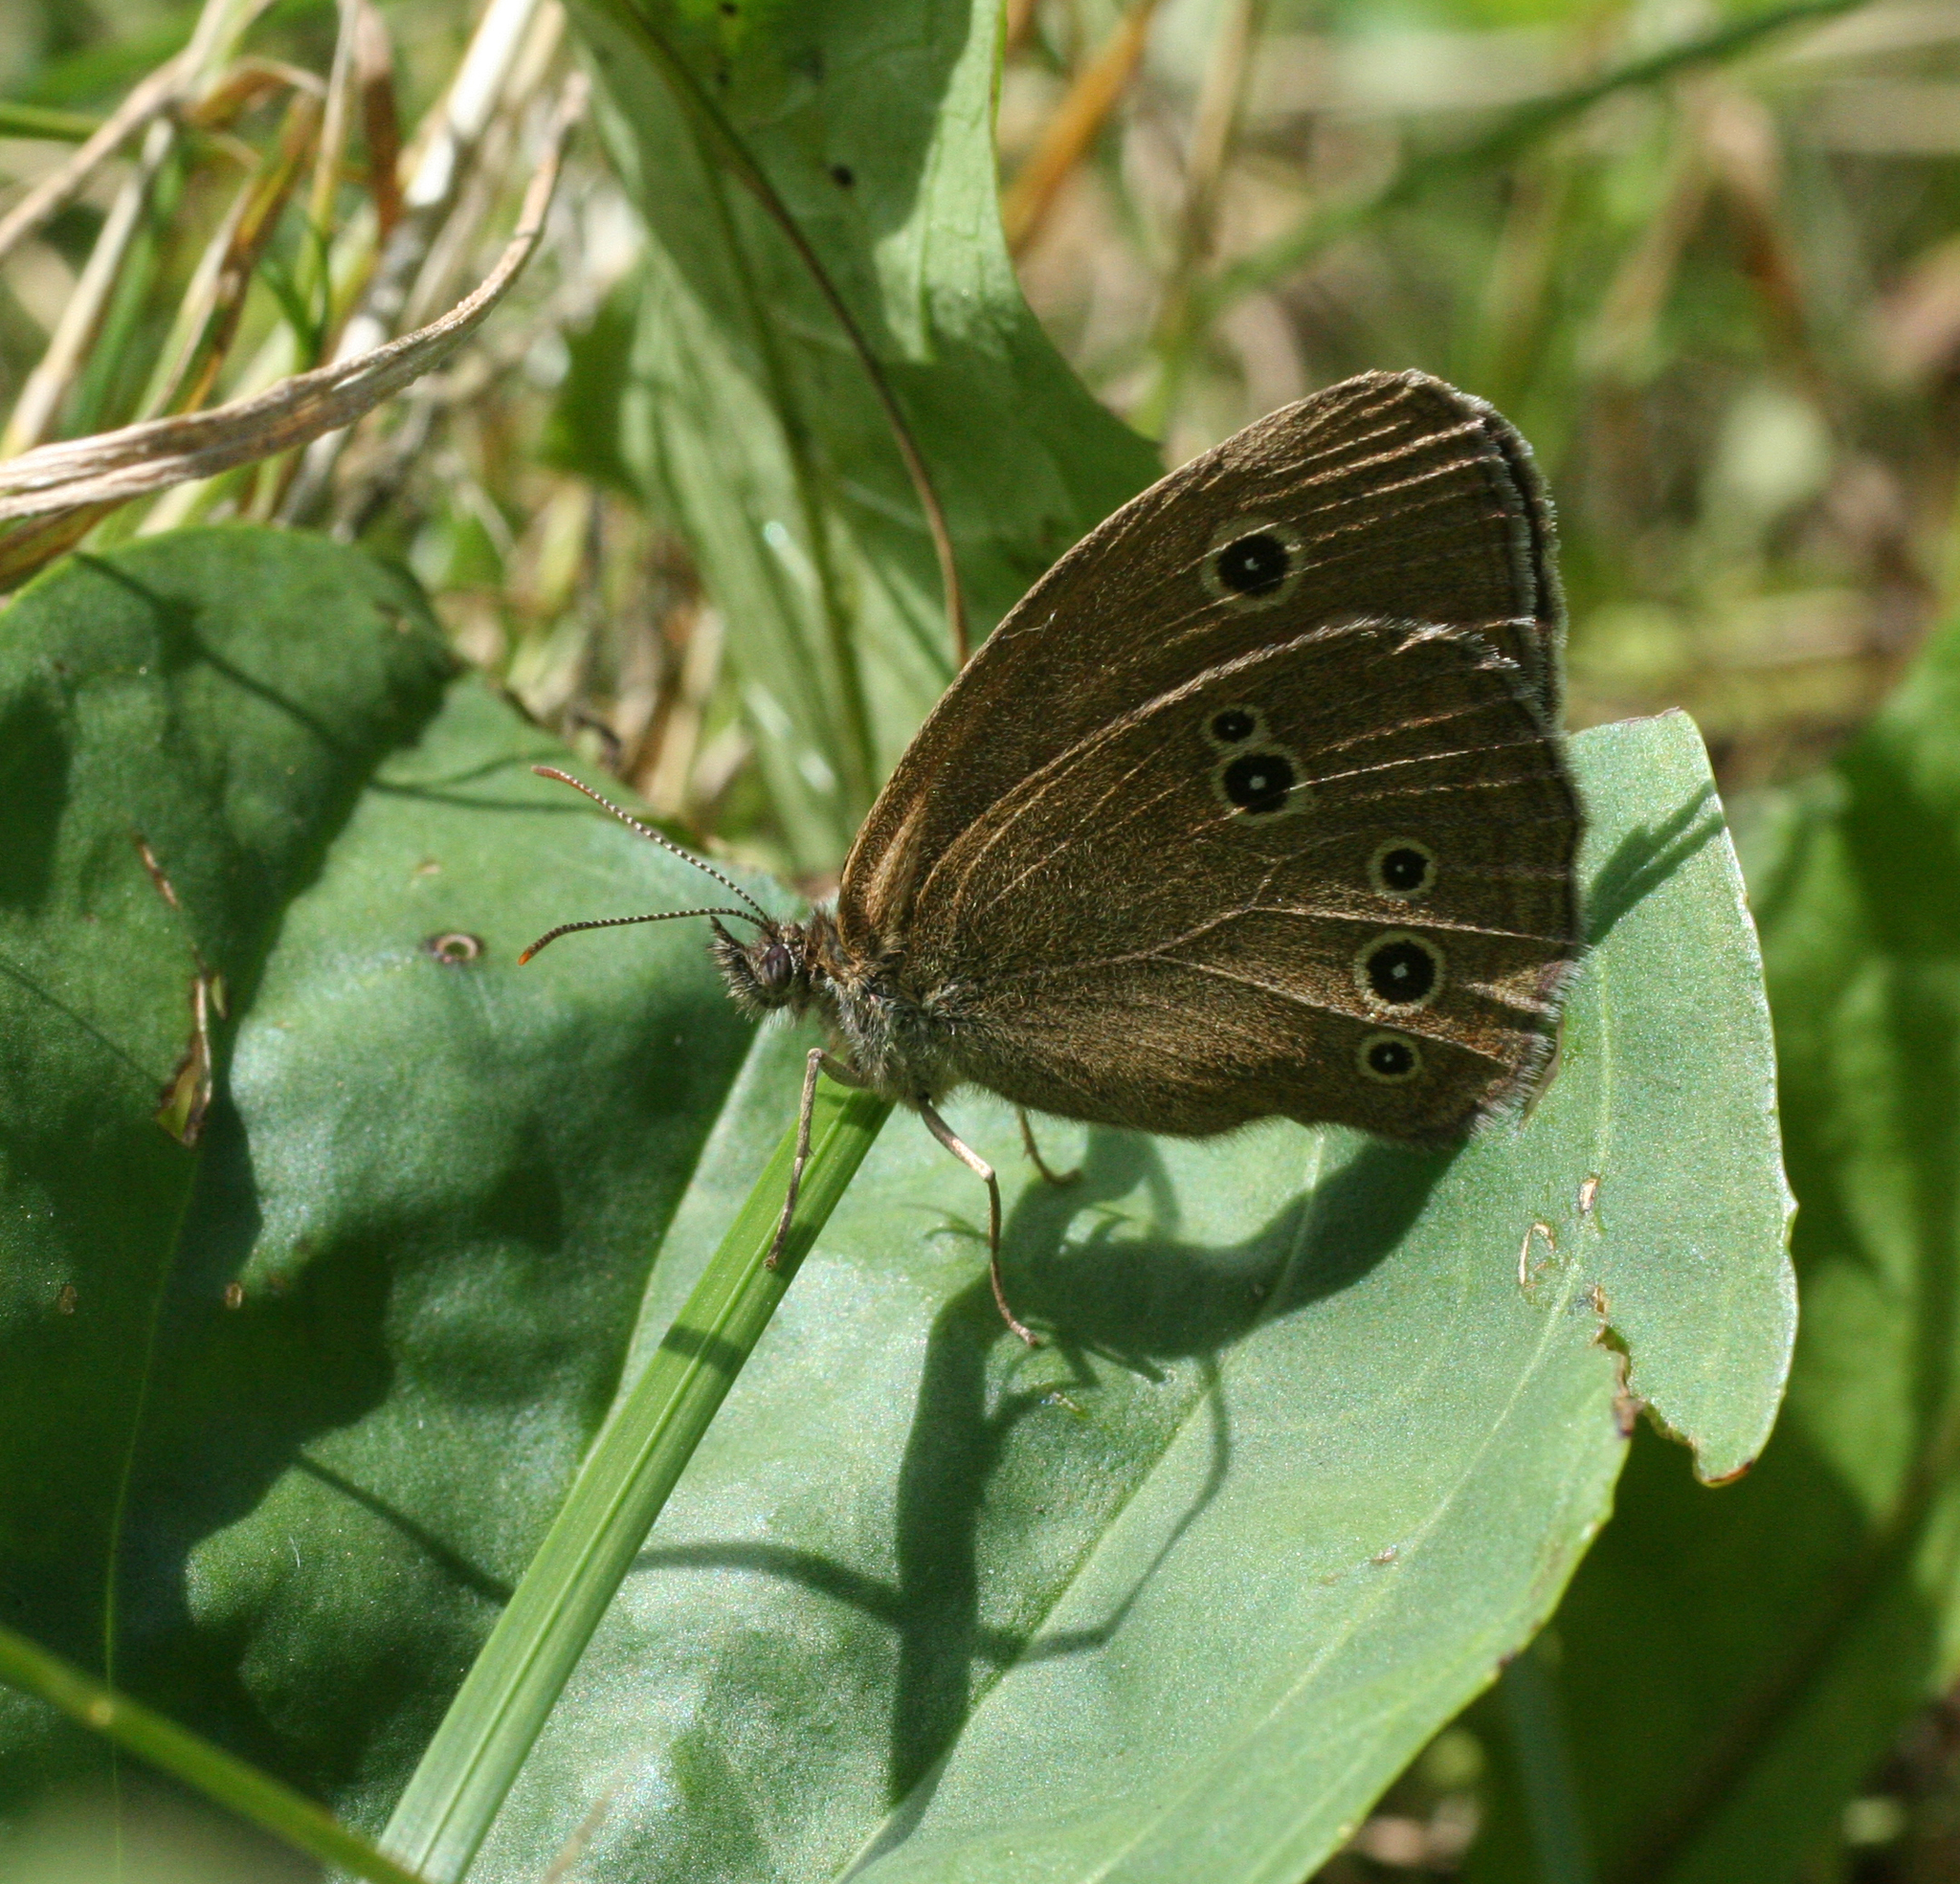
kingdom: Animalia
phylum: Arthropoda
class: Insecta
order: Lepidoptera
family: Nymphalidae
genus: Aphantopus
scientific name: Aphantopus hyperantus
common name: Ringlet
